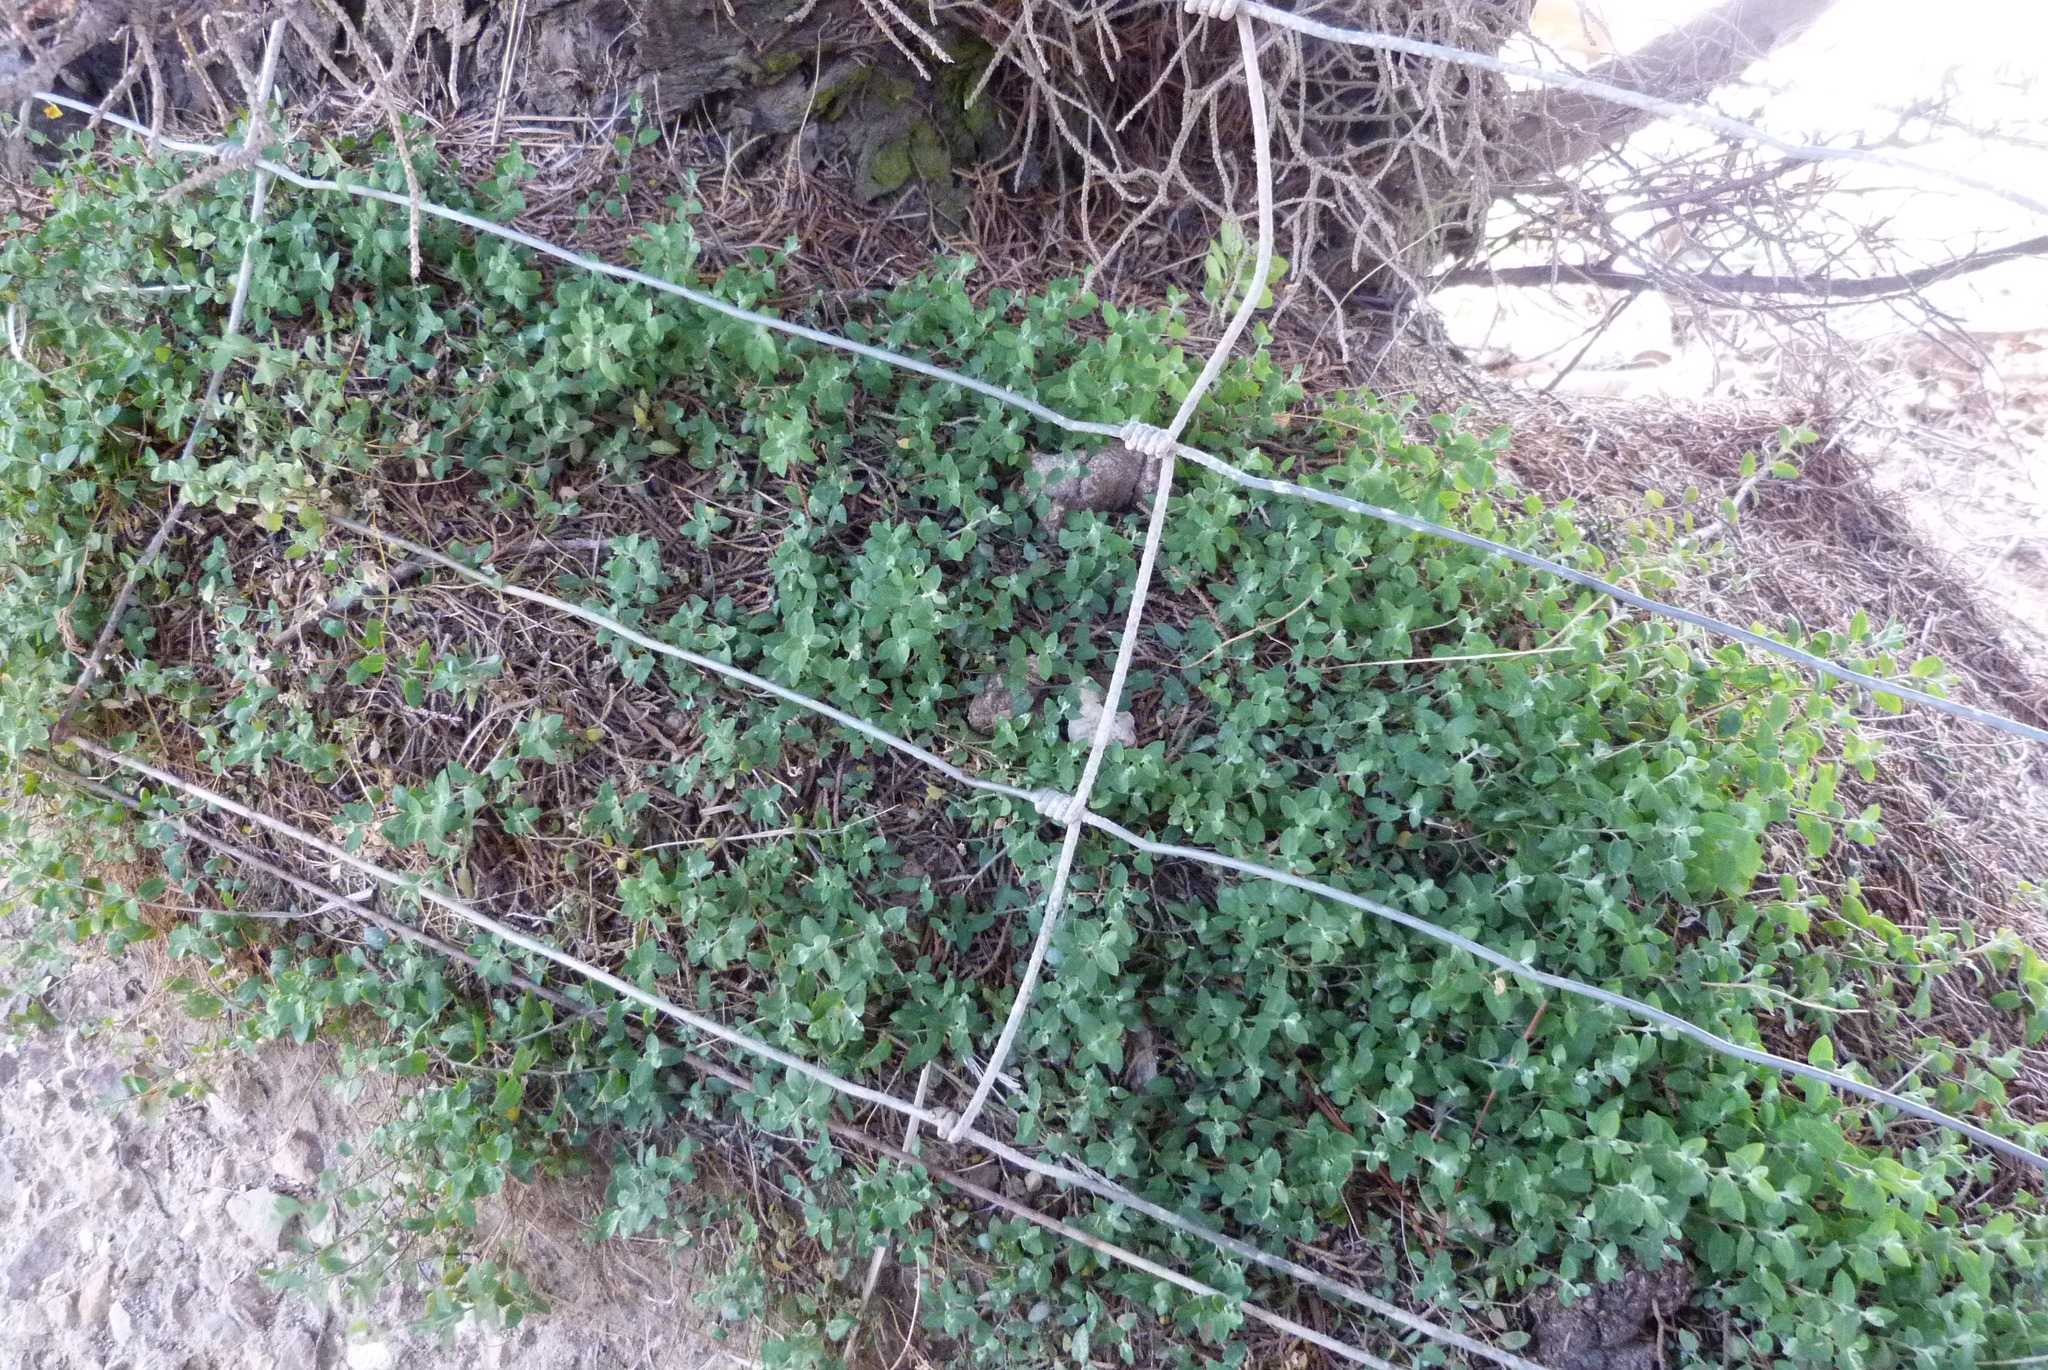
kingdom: Plantae
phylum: Tracheophyta
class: Magnoliopsida
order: Caryophyllales
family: Amaranthaceae
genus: Chenopodium
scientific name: Chenopodium triandrum
